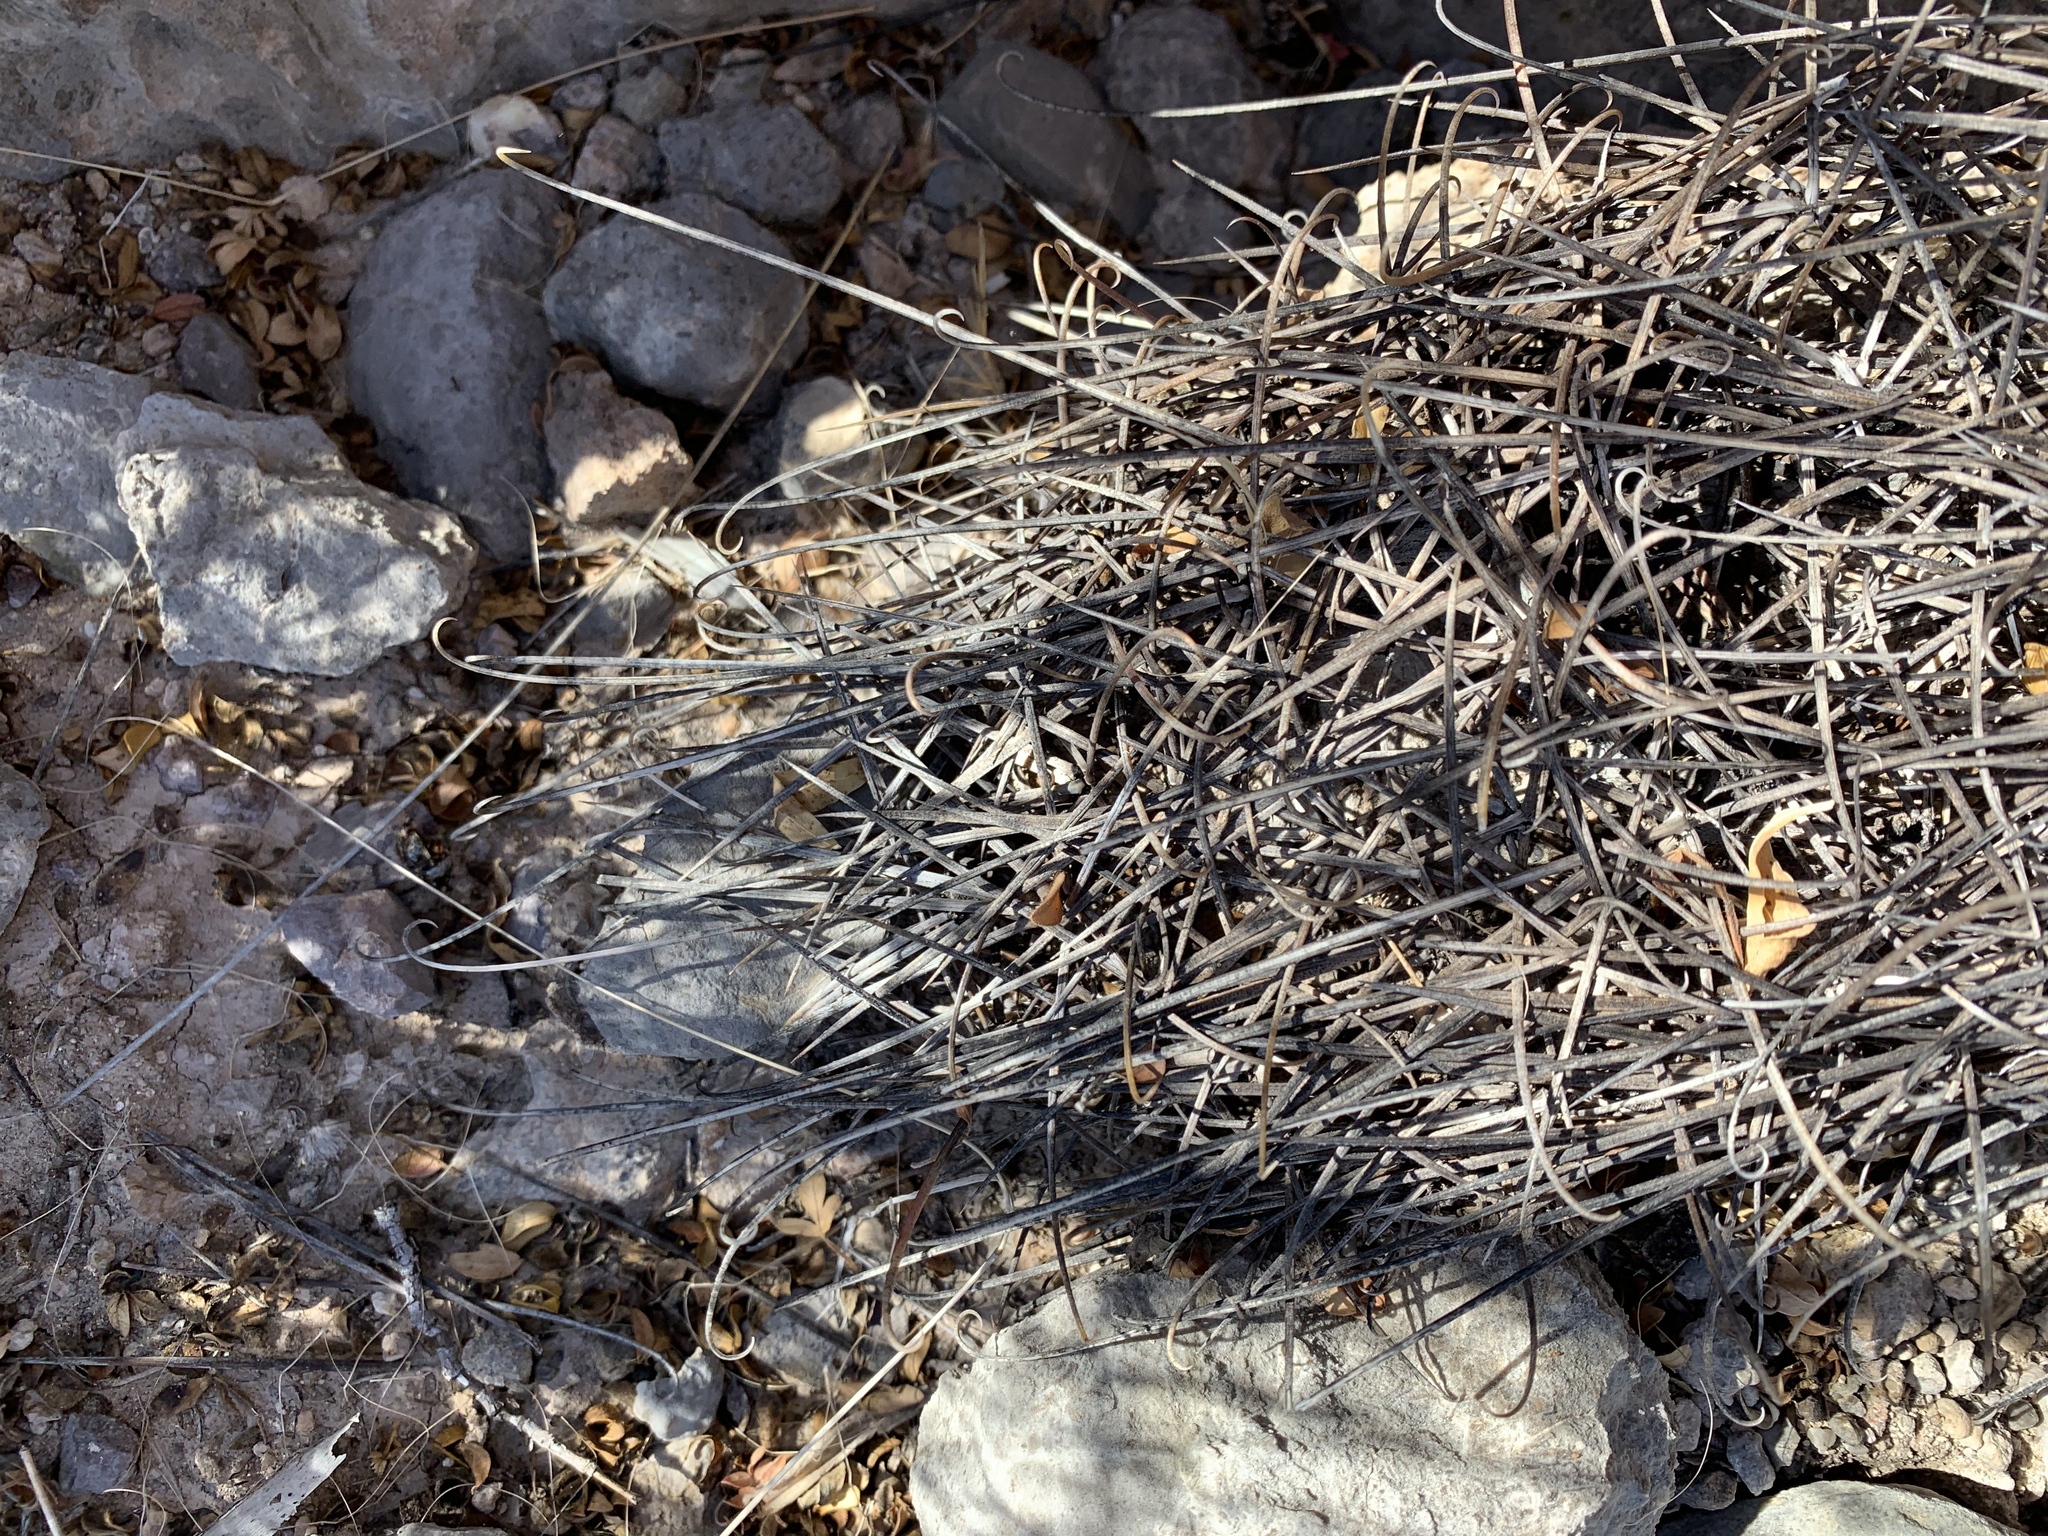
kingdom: Plantae
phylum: Tracheophyta
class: Magnoliopsida
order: Caryophyllales
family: Cactaceae
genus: Ferocactus
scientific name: Ferocactus uncinatus
